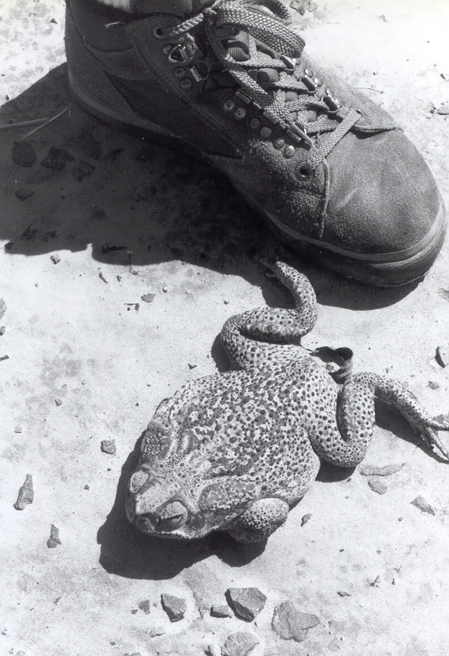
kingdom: Animalia
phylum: Chordata
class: Amphibia
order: Anura
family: Bufonidae
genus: Rhinella
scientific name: Rhinella diptycha
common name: Cope's toad
